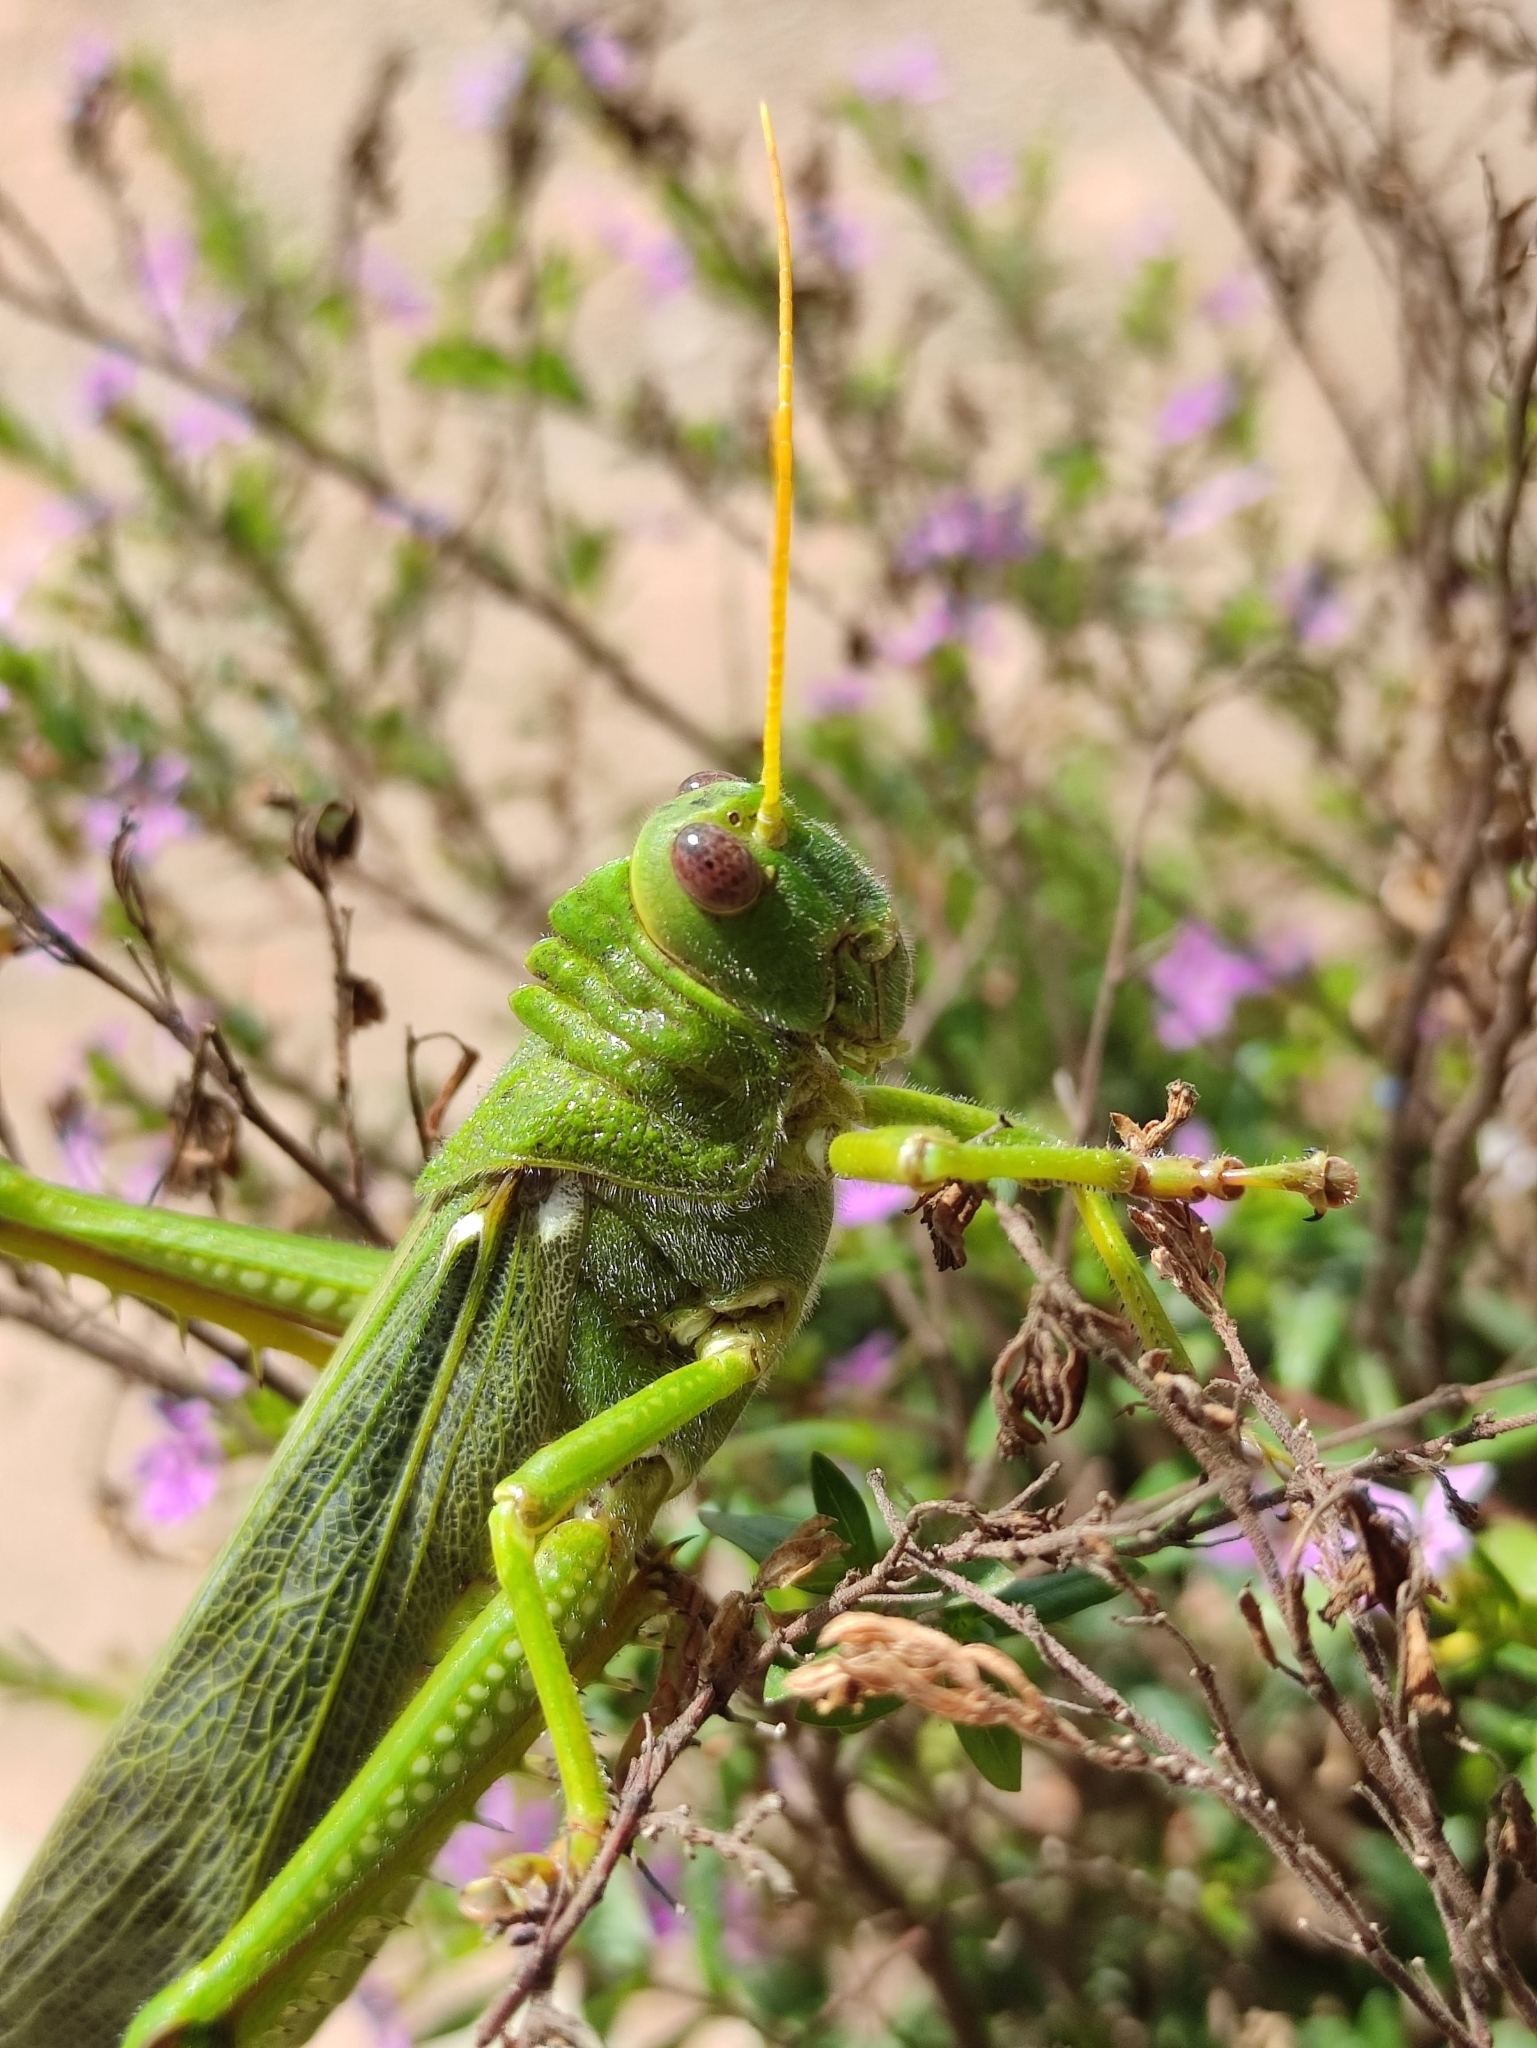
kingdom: Animalia
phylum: Arthropoda
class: Insecta
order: Orthoptera
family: Romaleidae
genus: Tropidacris
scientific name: Tropidacris collaris
